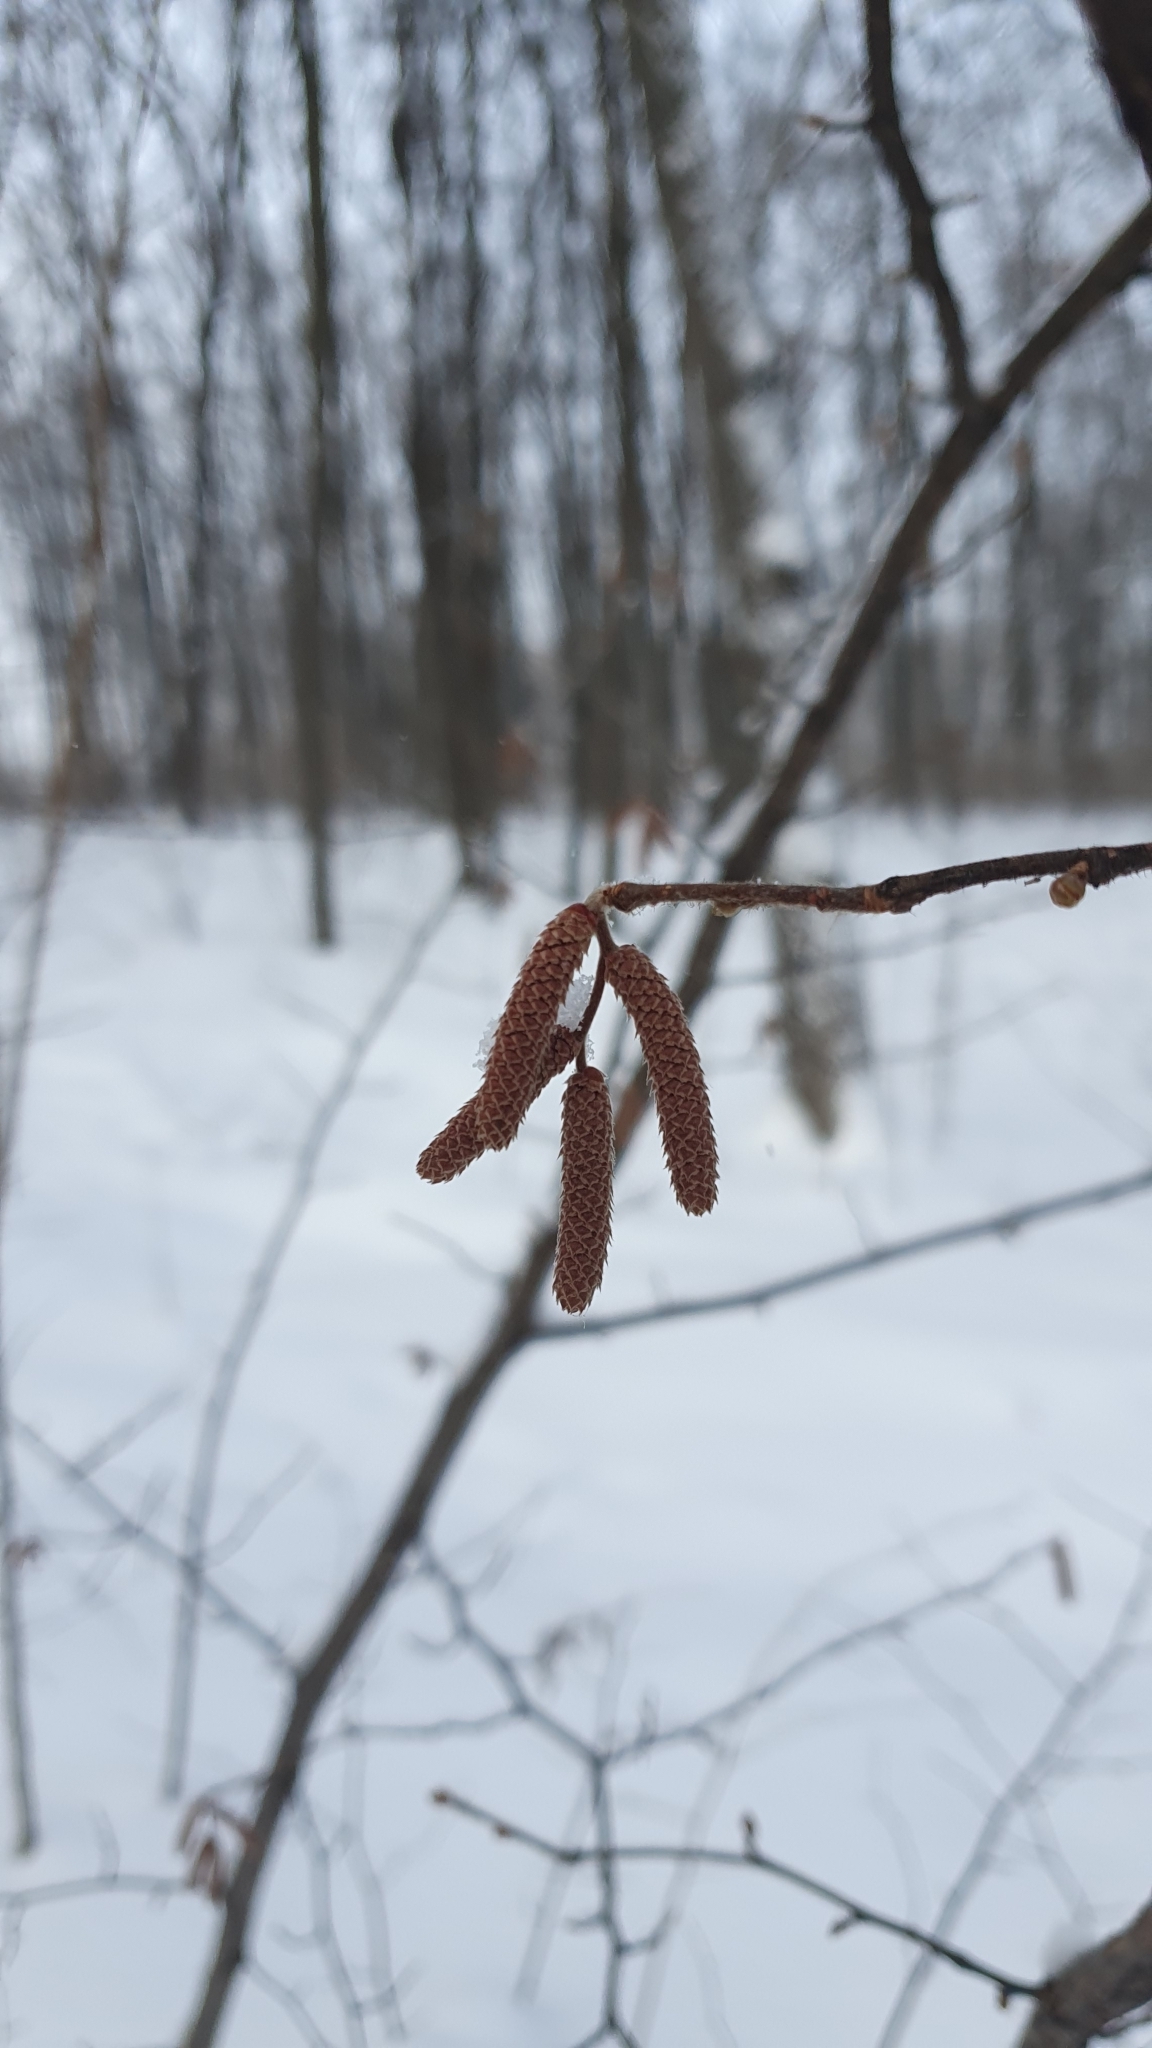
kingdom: Plantae
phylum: Tracheophyta
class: Magnoliopsida
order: Fagales
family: Betulaceae
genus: Corylus
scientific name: Corylus avellana
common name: European hazel
